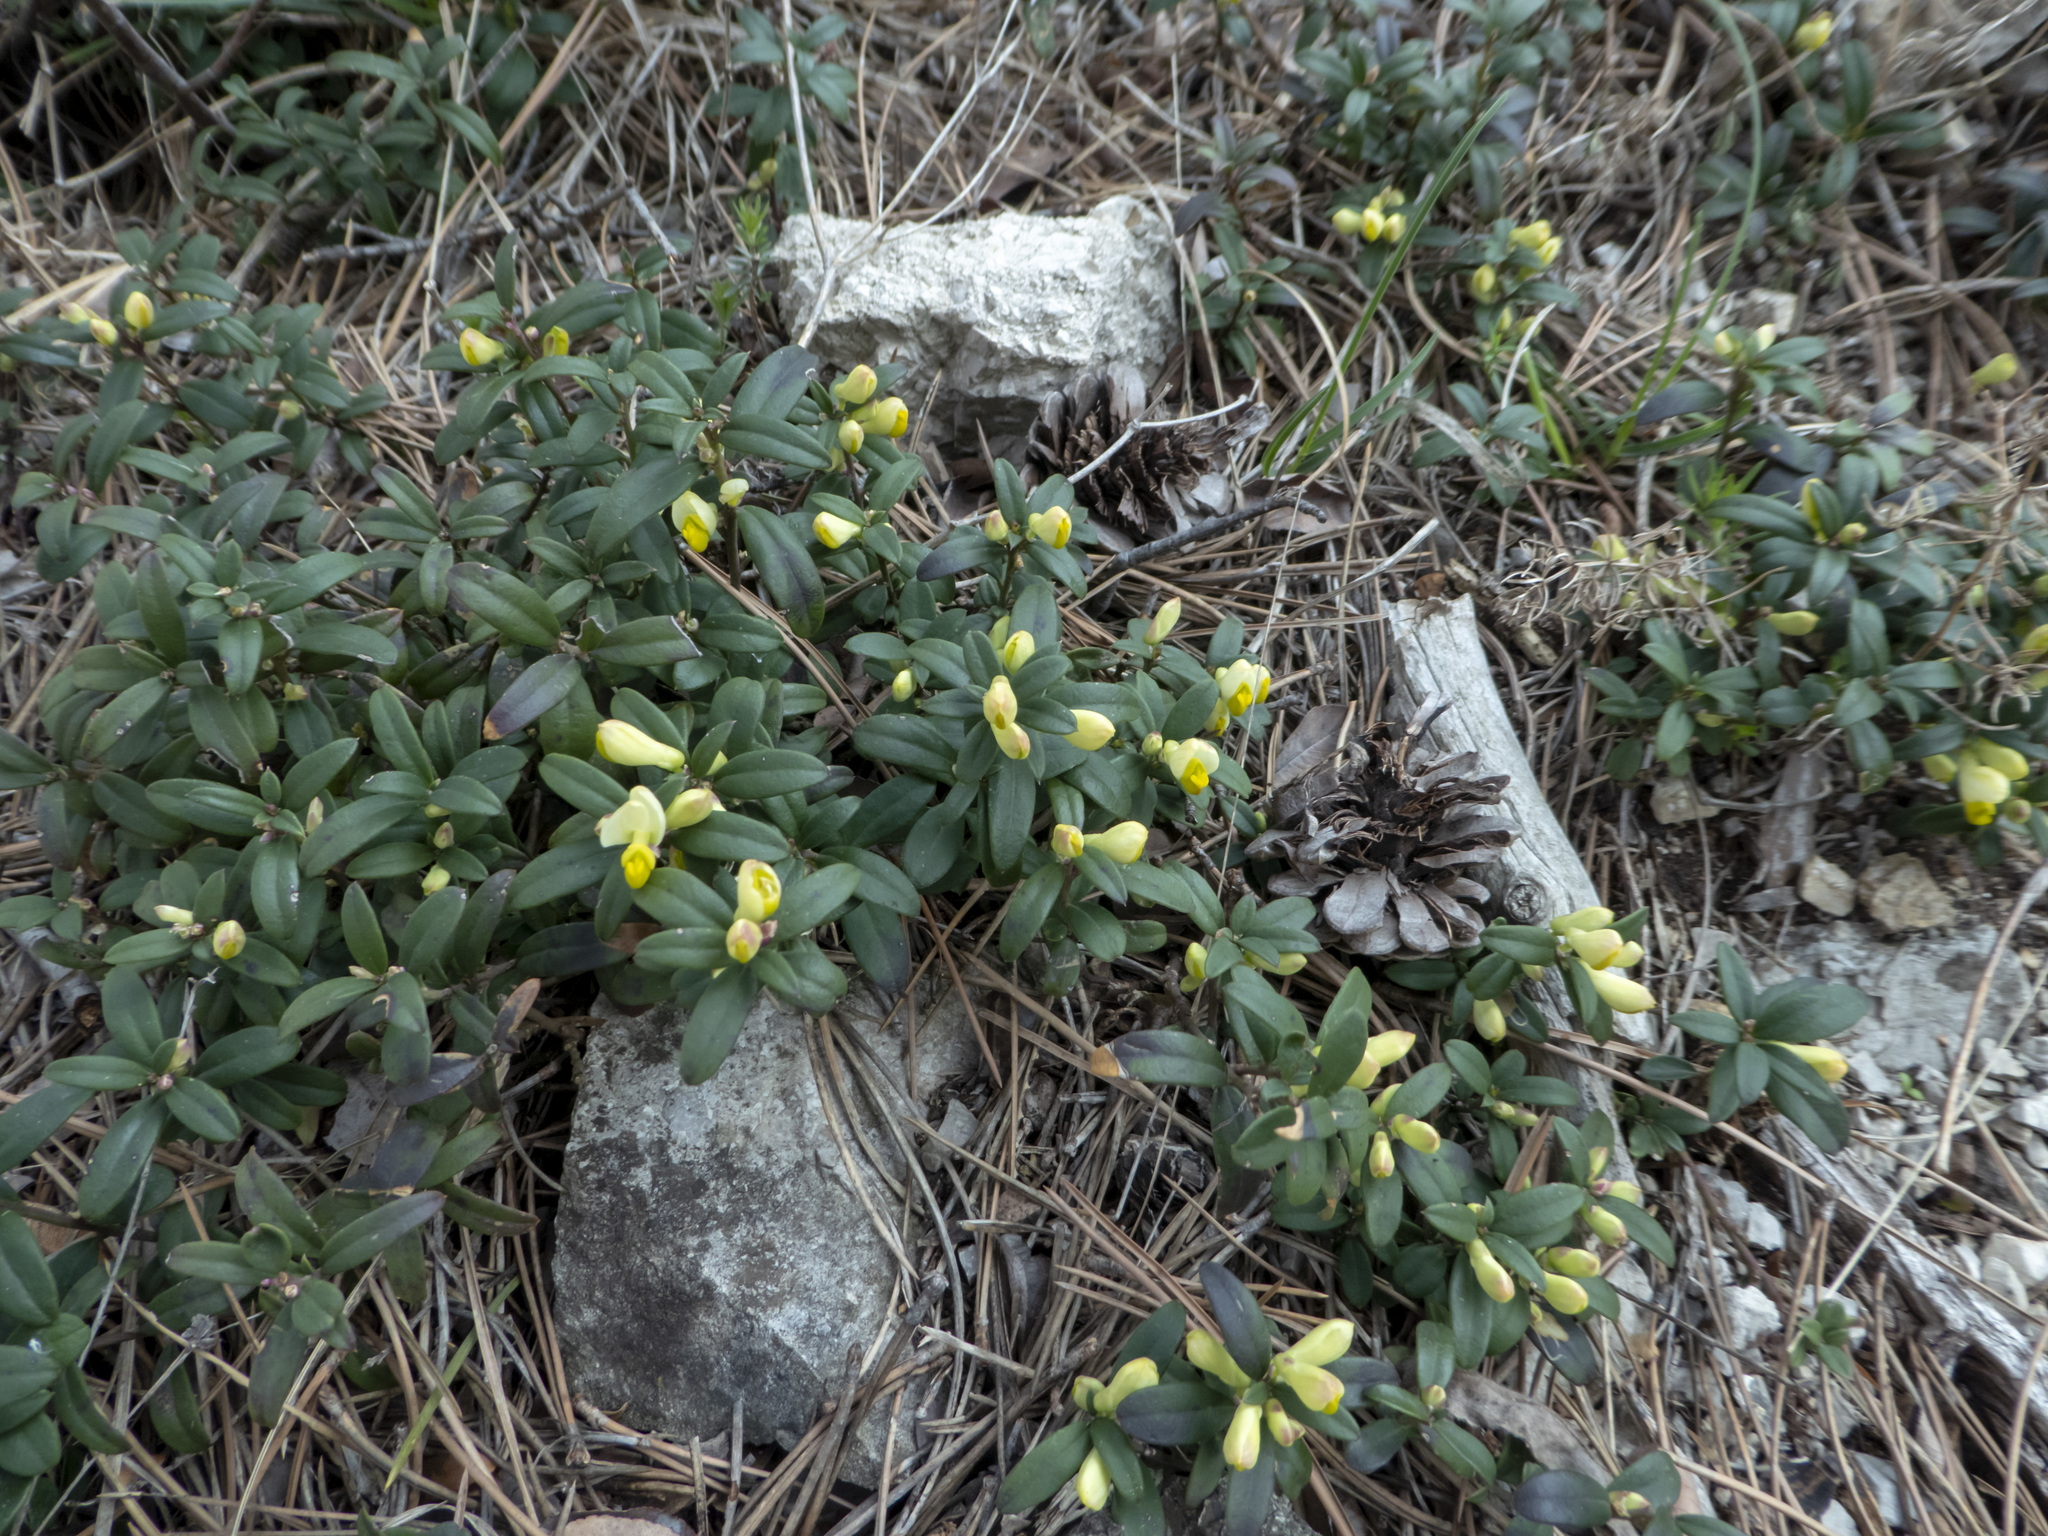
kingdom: Plantae
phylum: Tracheophyta
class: Magnoliopsida
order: Fabales
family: Polygalaceae
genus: Polygaloides
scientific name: Polygaloides chamaebuxus
